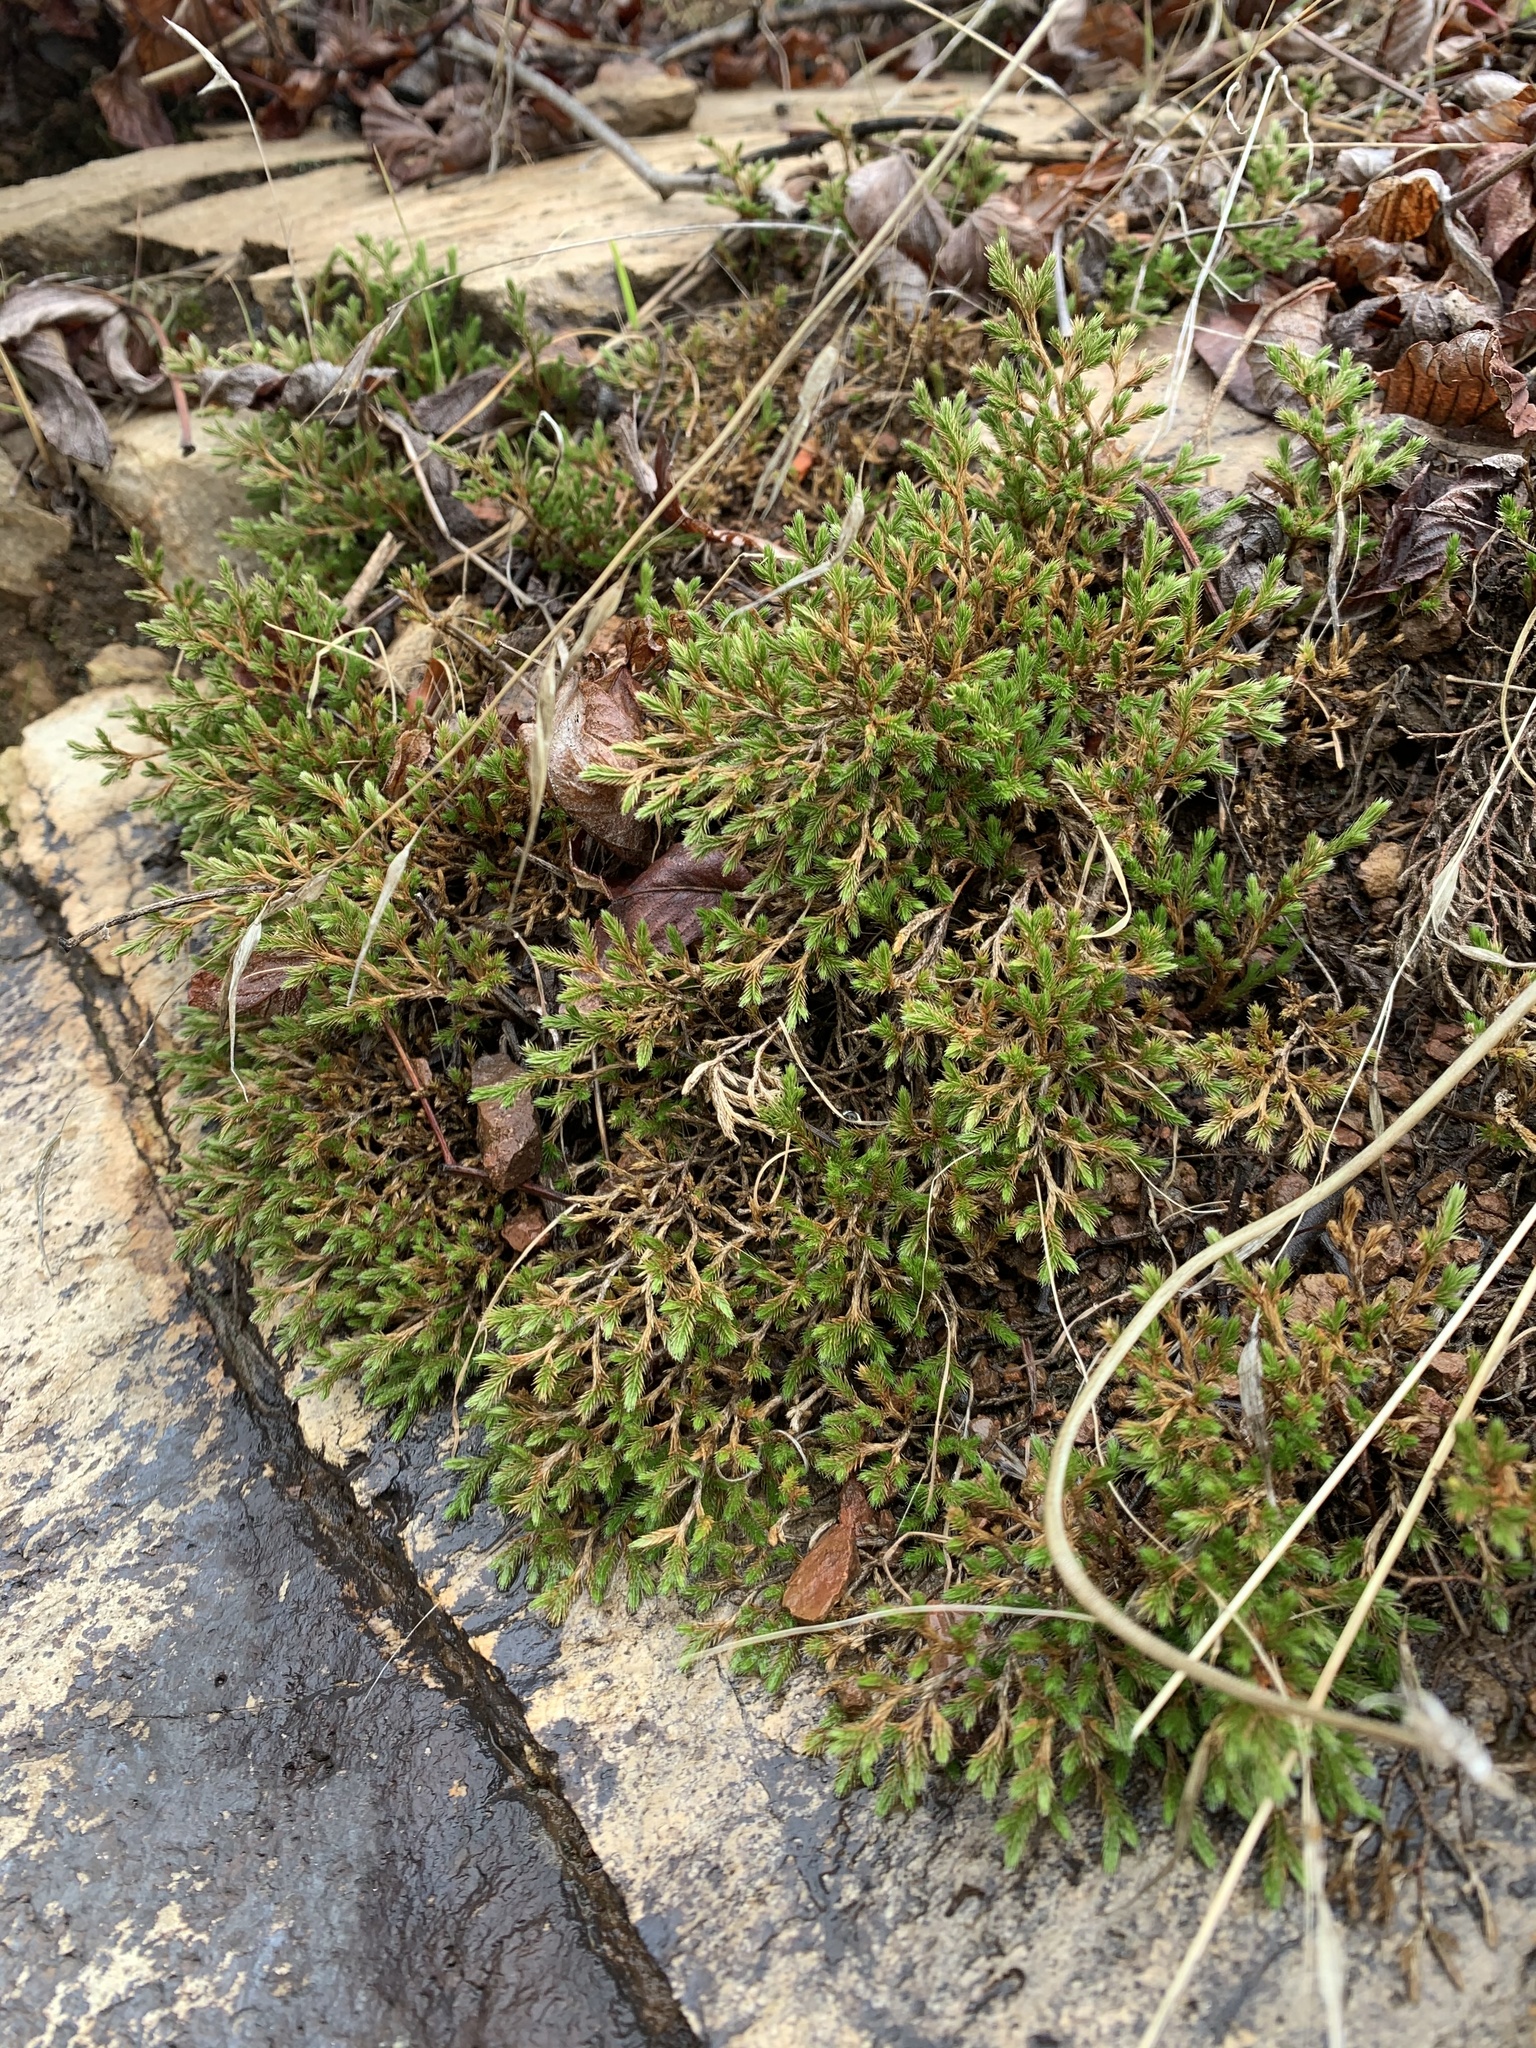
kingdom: Plantae
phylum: Tracheophyta
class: Lycopodiopsida
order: Selaginellales
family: Selaginellaceae
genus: Selaginella
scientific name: Selaginella bigelovii
